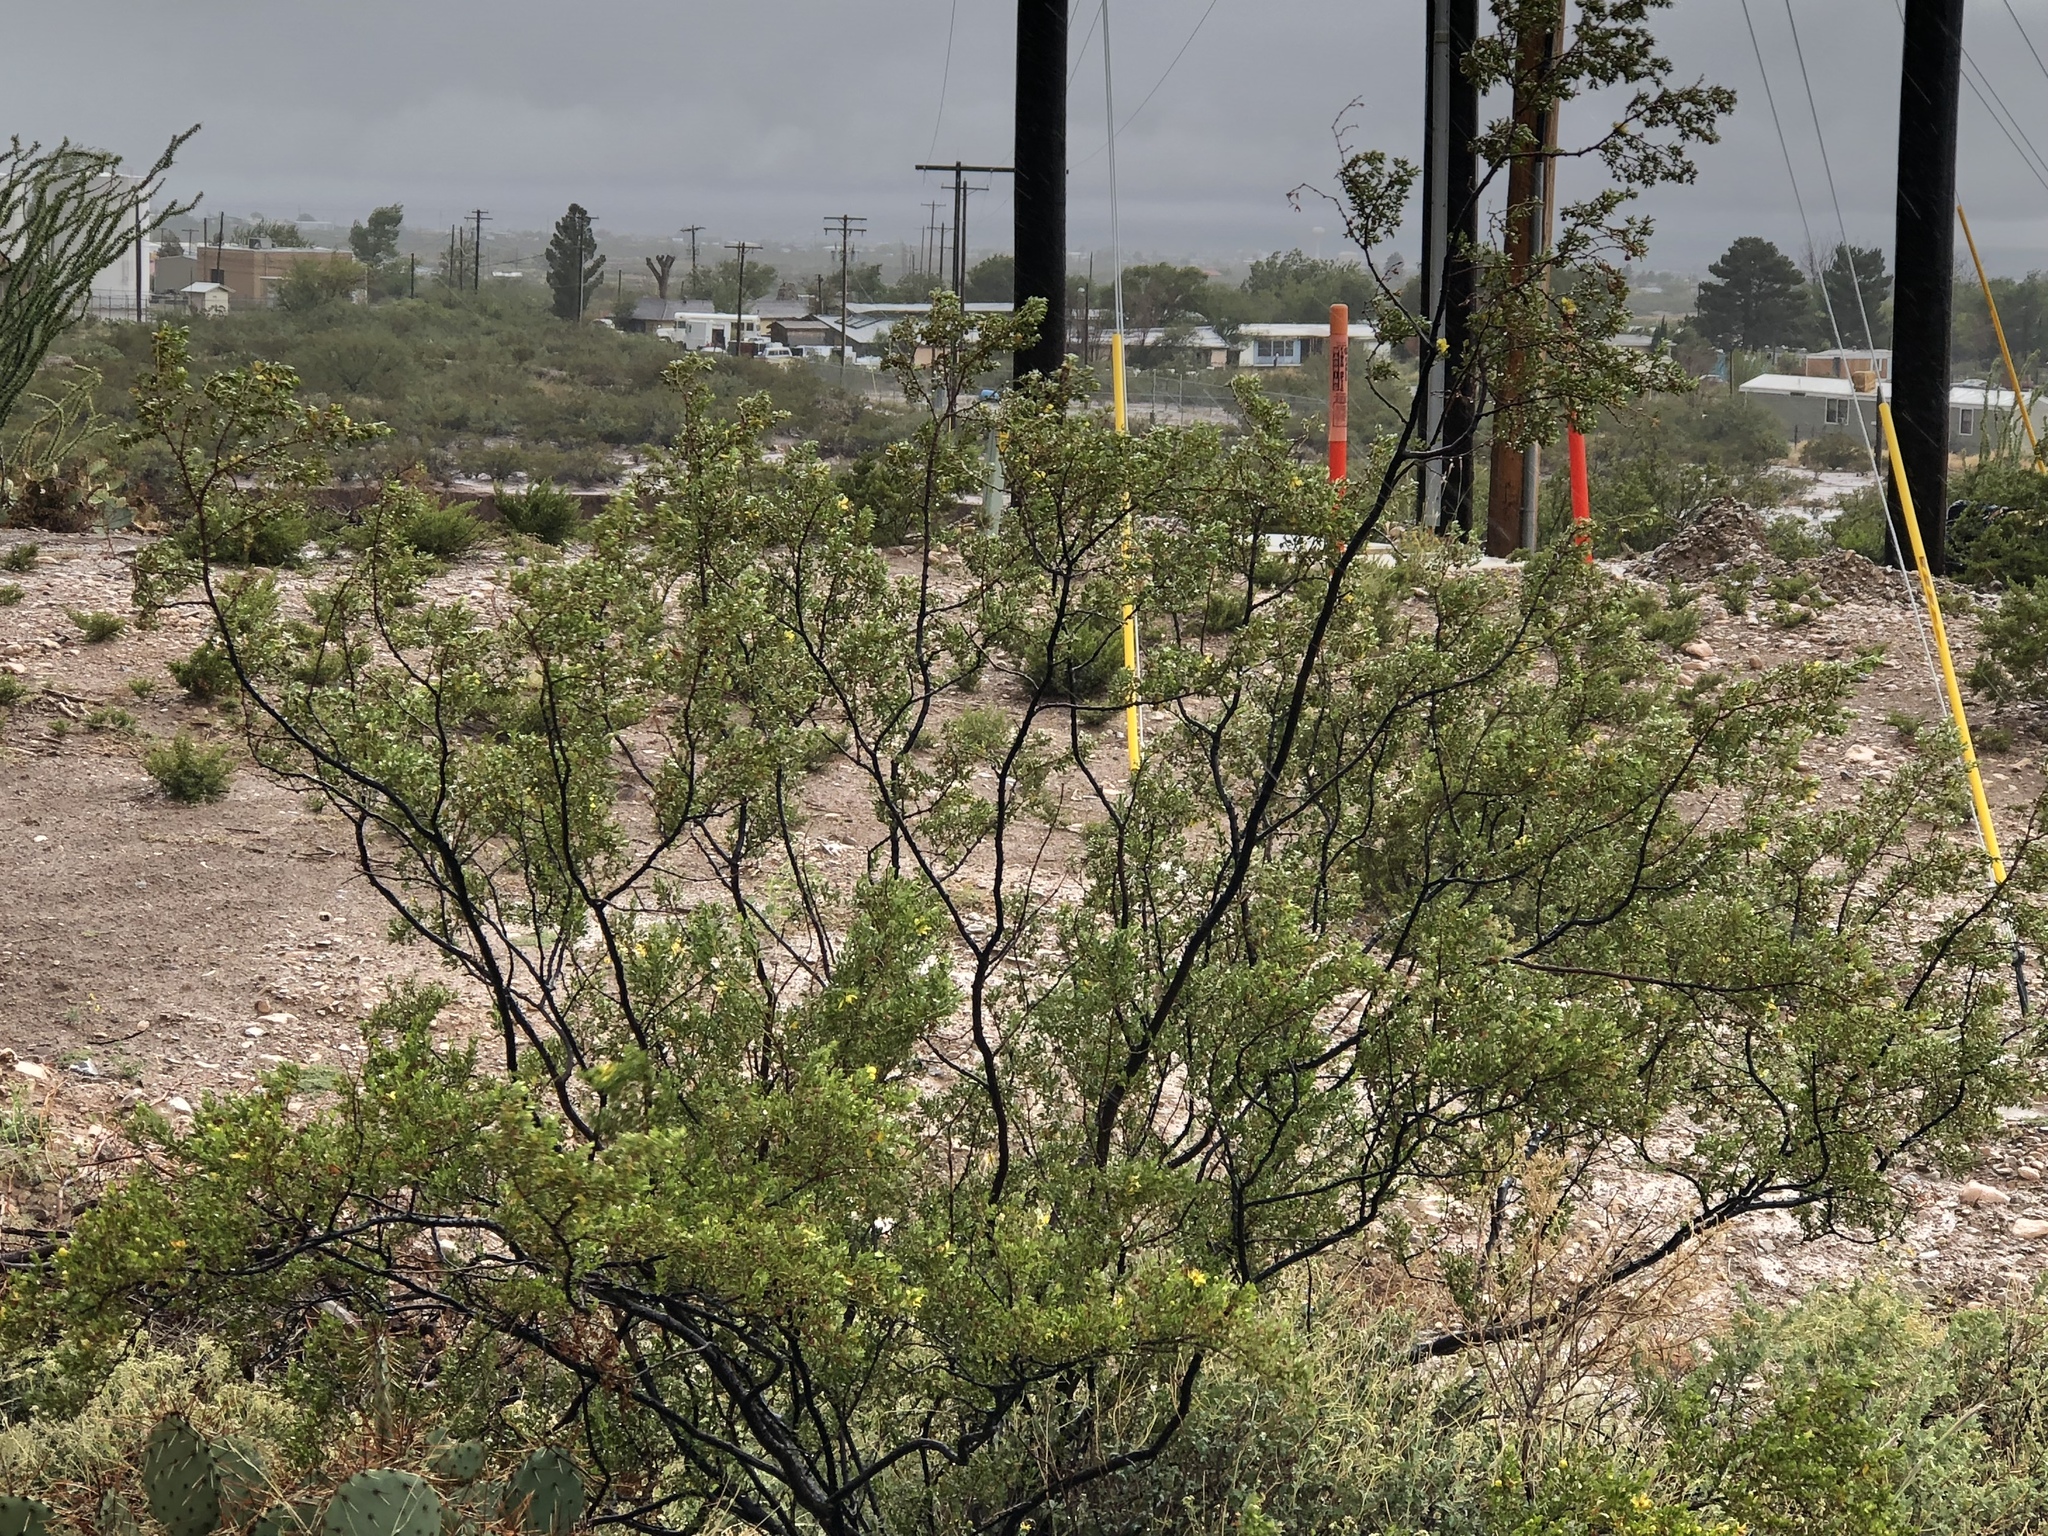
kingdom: Plantae
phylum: Tracheophyta
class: Magnoliopsida
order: Zygophyllales
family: Zygophyllaceae
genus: Larrea
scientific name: Larrea tridentata
